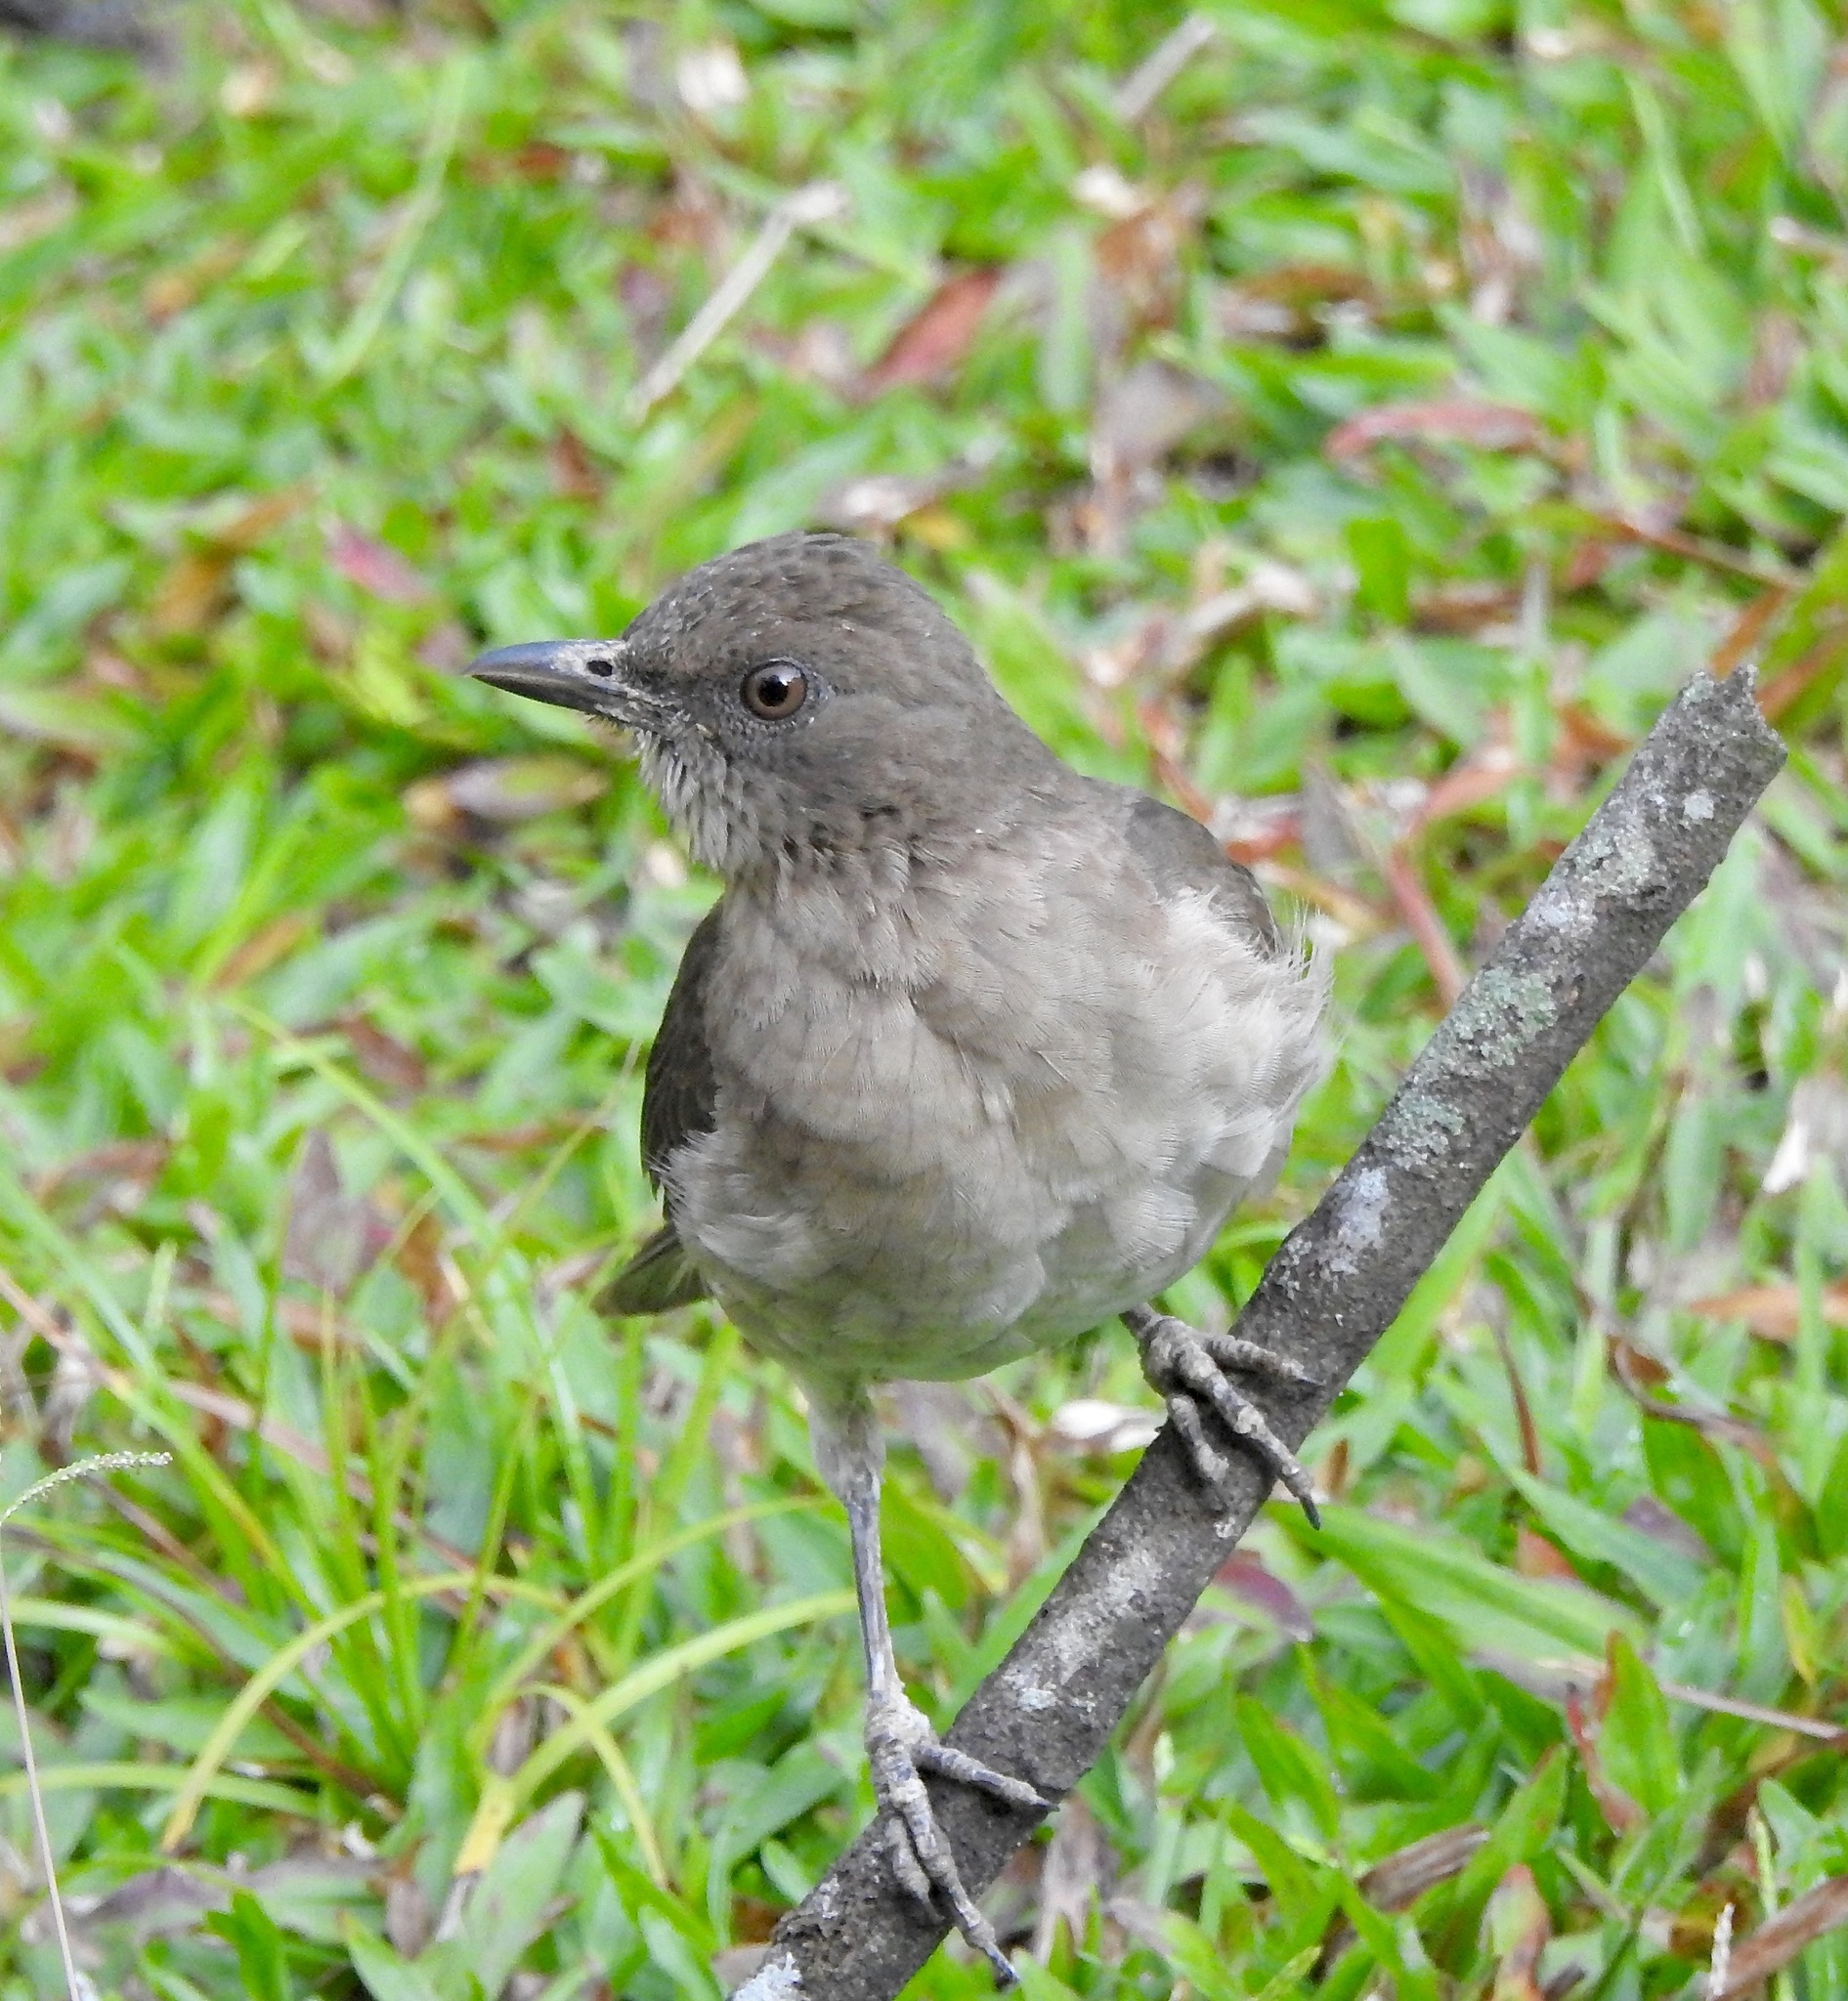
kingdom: Animalia
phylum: Chordata
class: Aves
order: Passeriformes
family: Turdidae
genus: Turdus
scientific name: Turdus ignobilis
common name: Black-billed thrush
